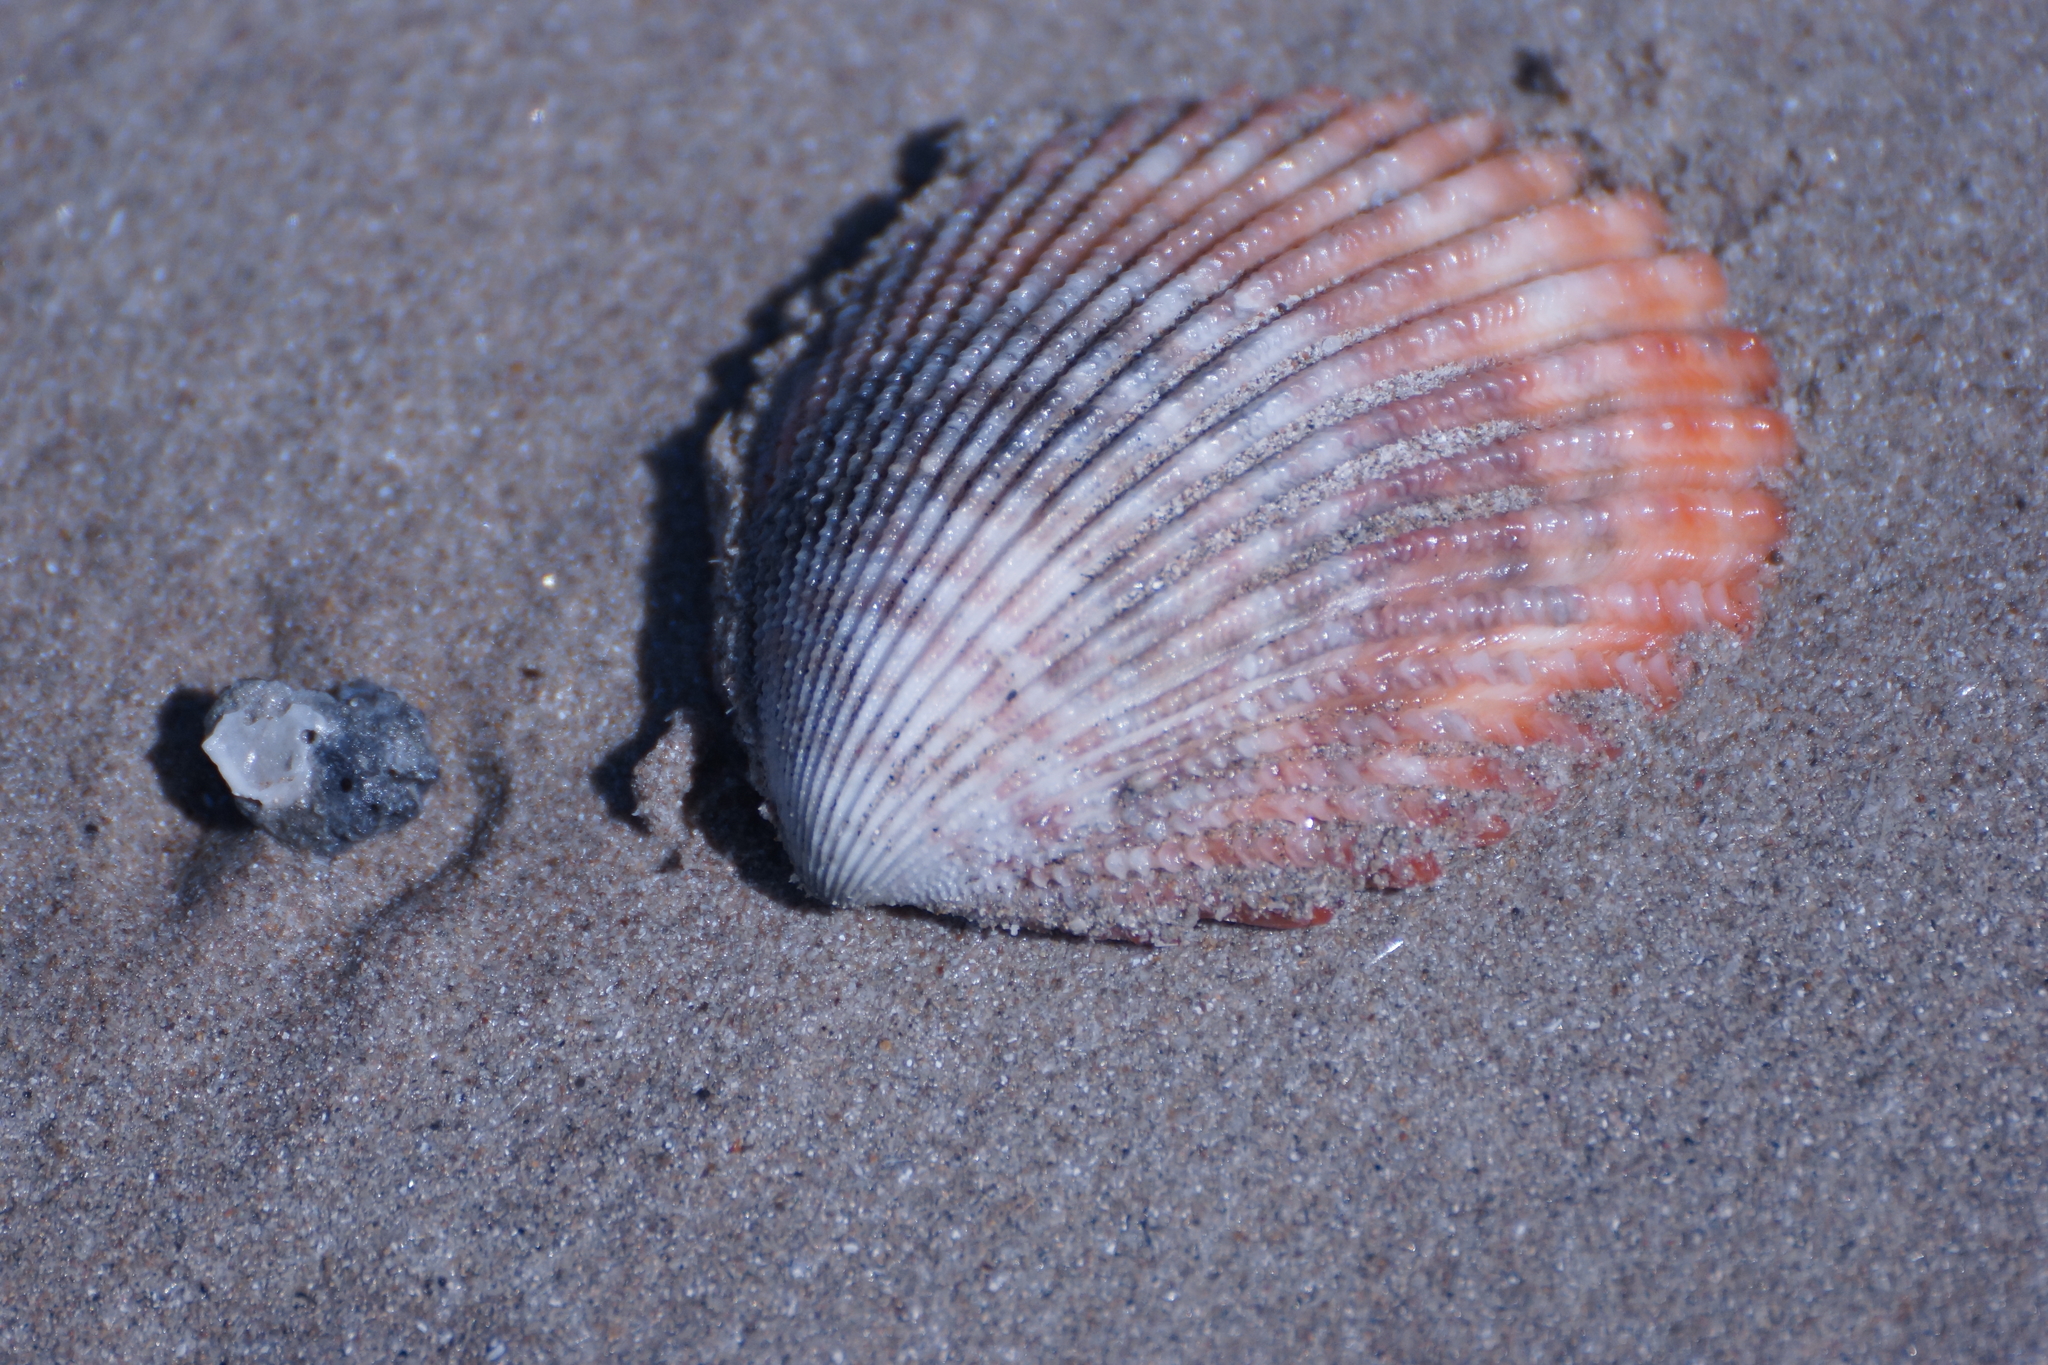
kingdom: Animalia
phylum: Mollusca
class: Bivalvia
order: Cardiida
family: Cardiidae
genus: Vasticardium
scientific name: Vasticardium vertebratum
